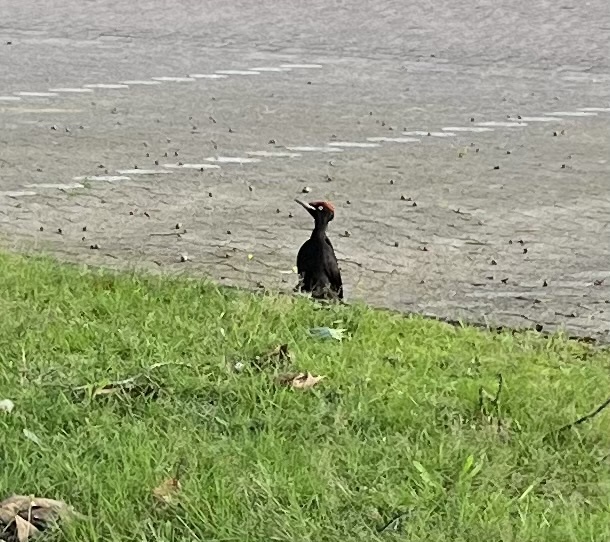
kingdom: Animalia
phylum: Chordata
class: Aves
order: Piciformes
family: Picidae
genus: Dryocopus
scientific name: Dryocopus martius
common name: Black woodpecker
